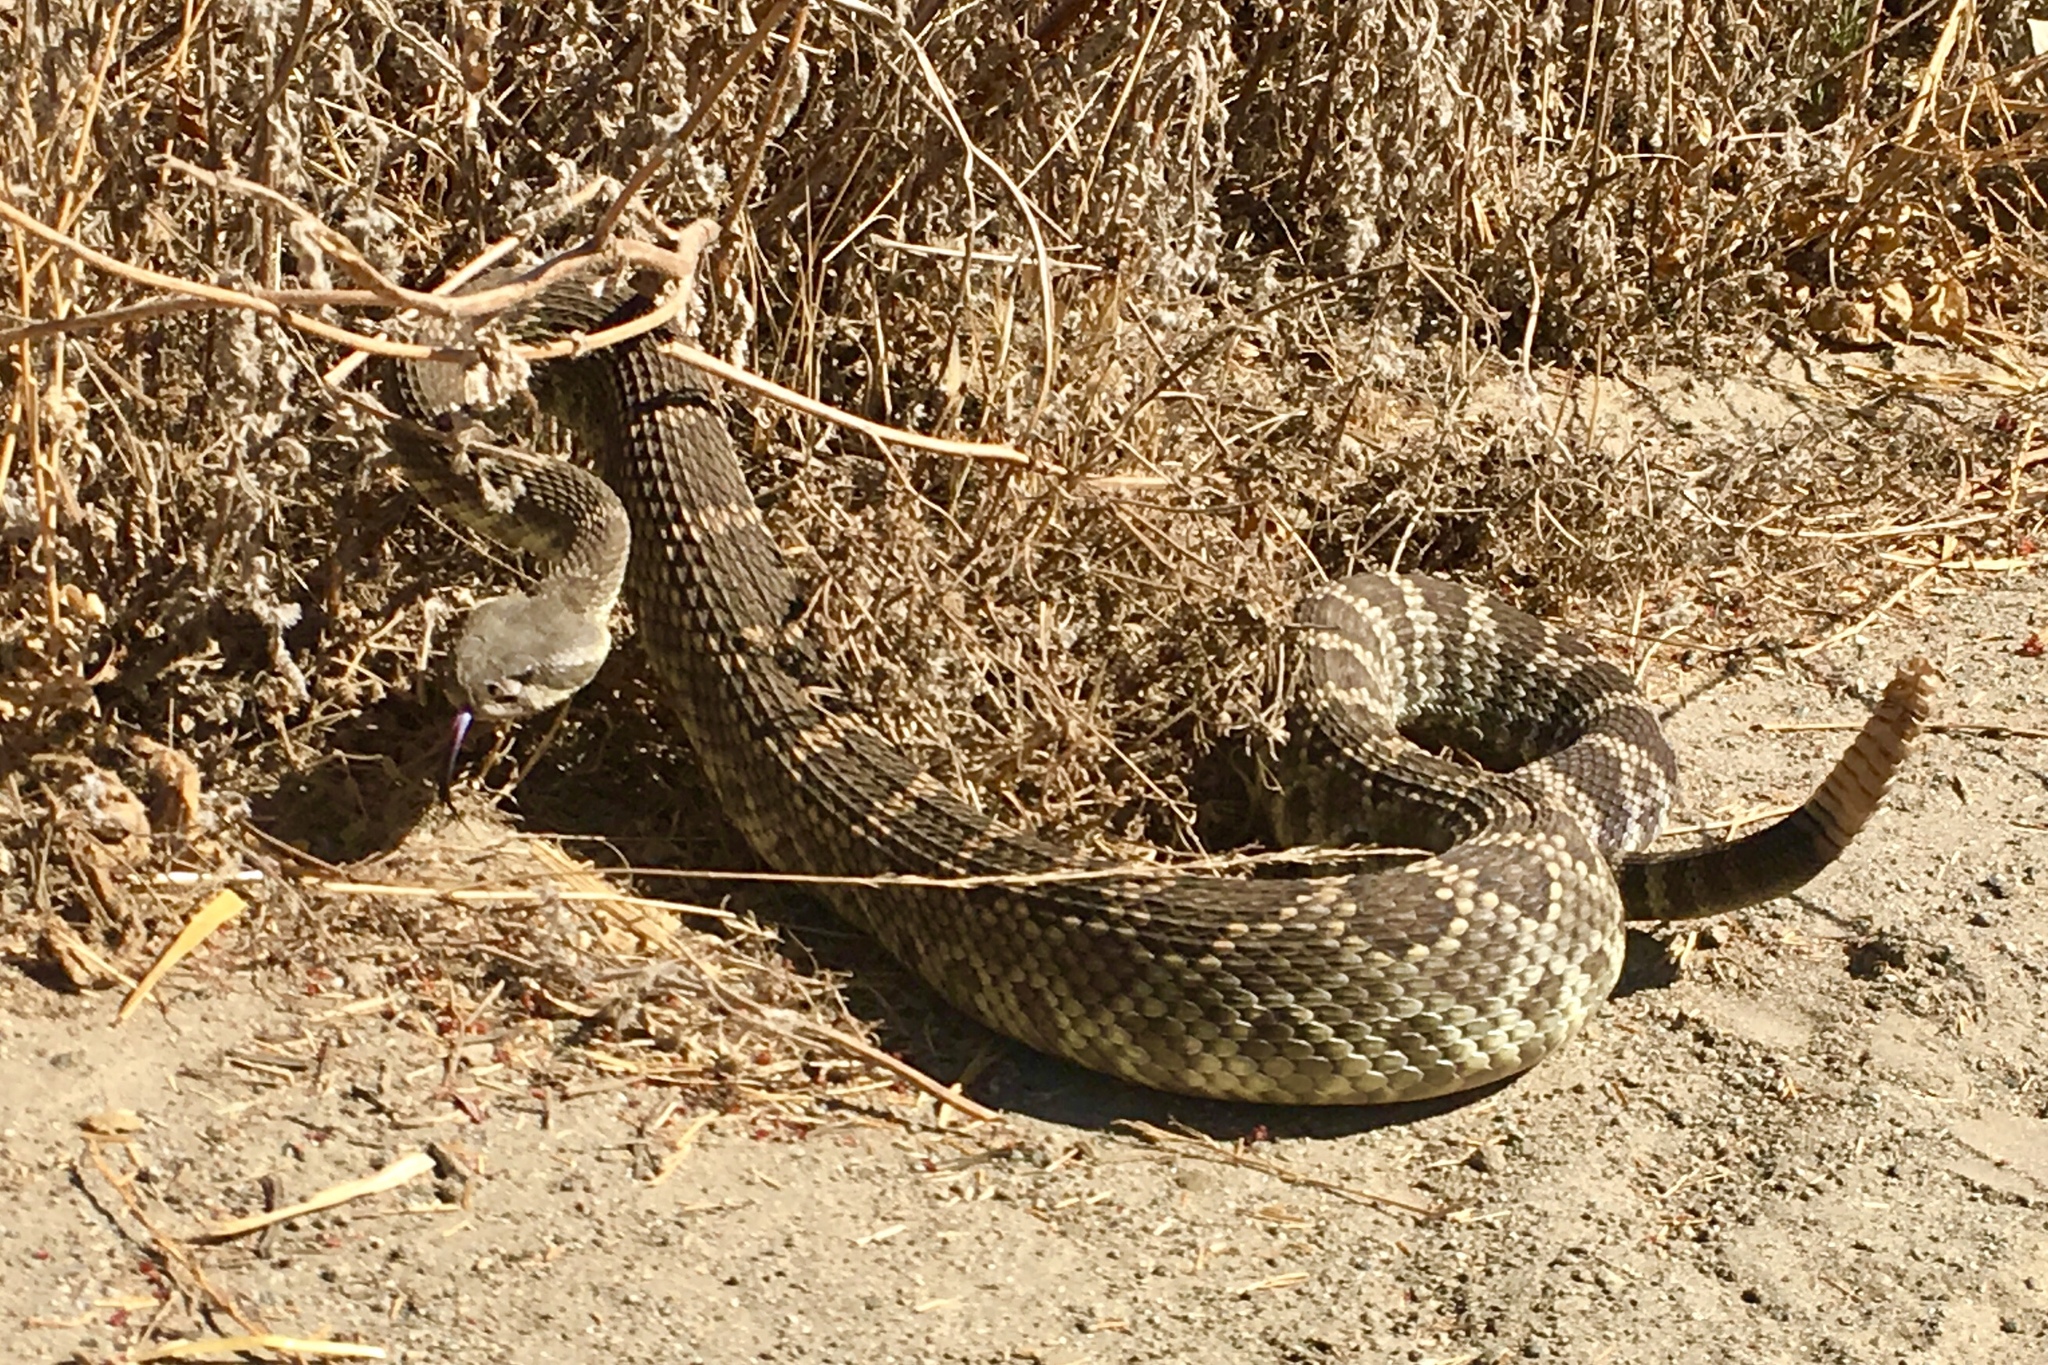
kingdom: Animalia
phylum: Chordata
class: Squamata
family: Viperidae
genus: Crotalus
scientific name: Crotalus oreganus
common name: Abyssus
